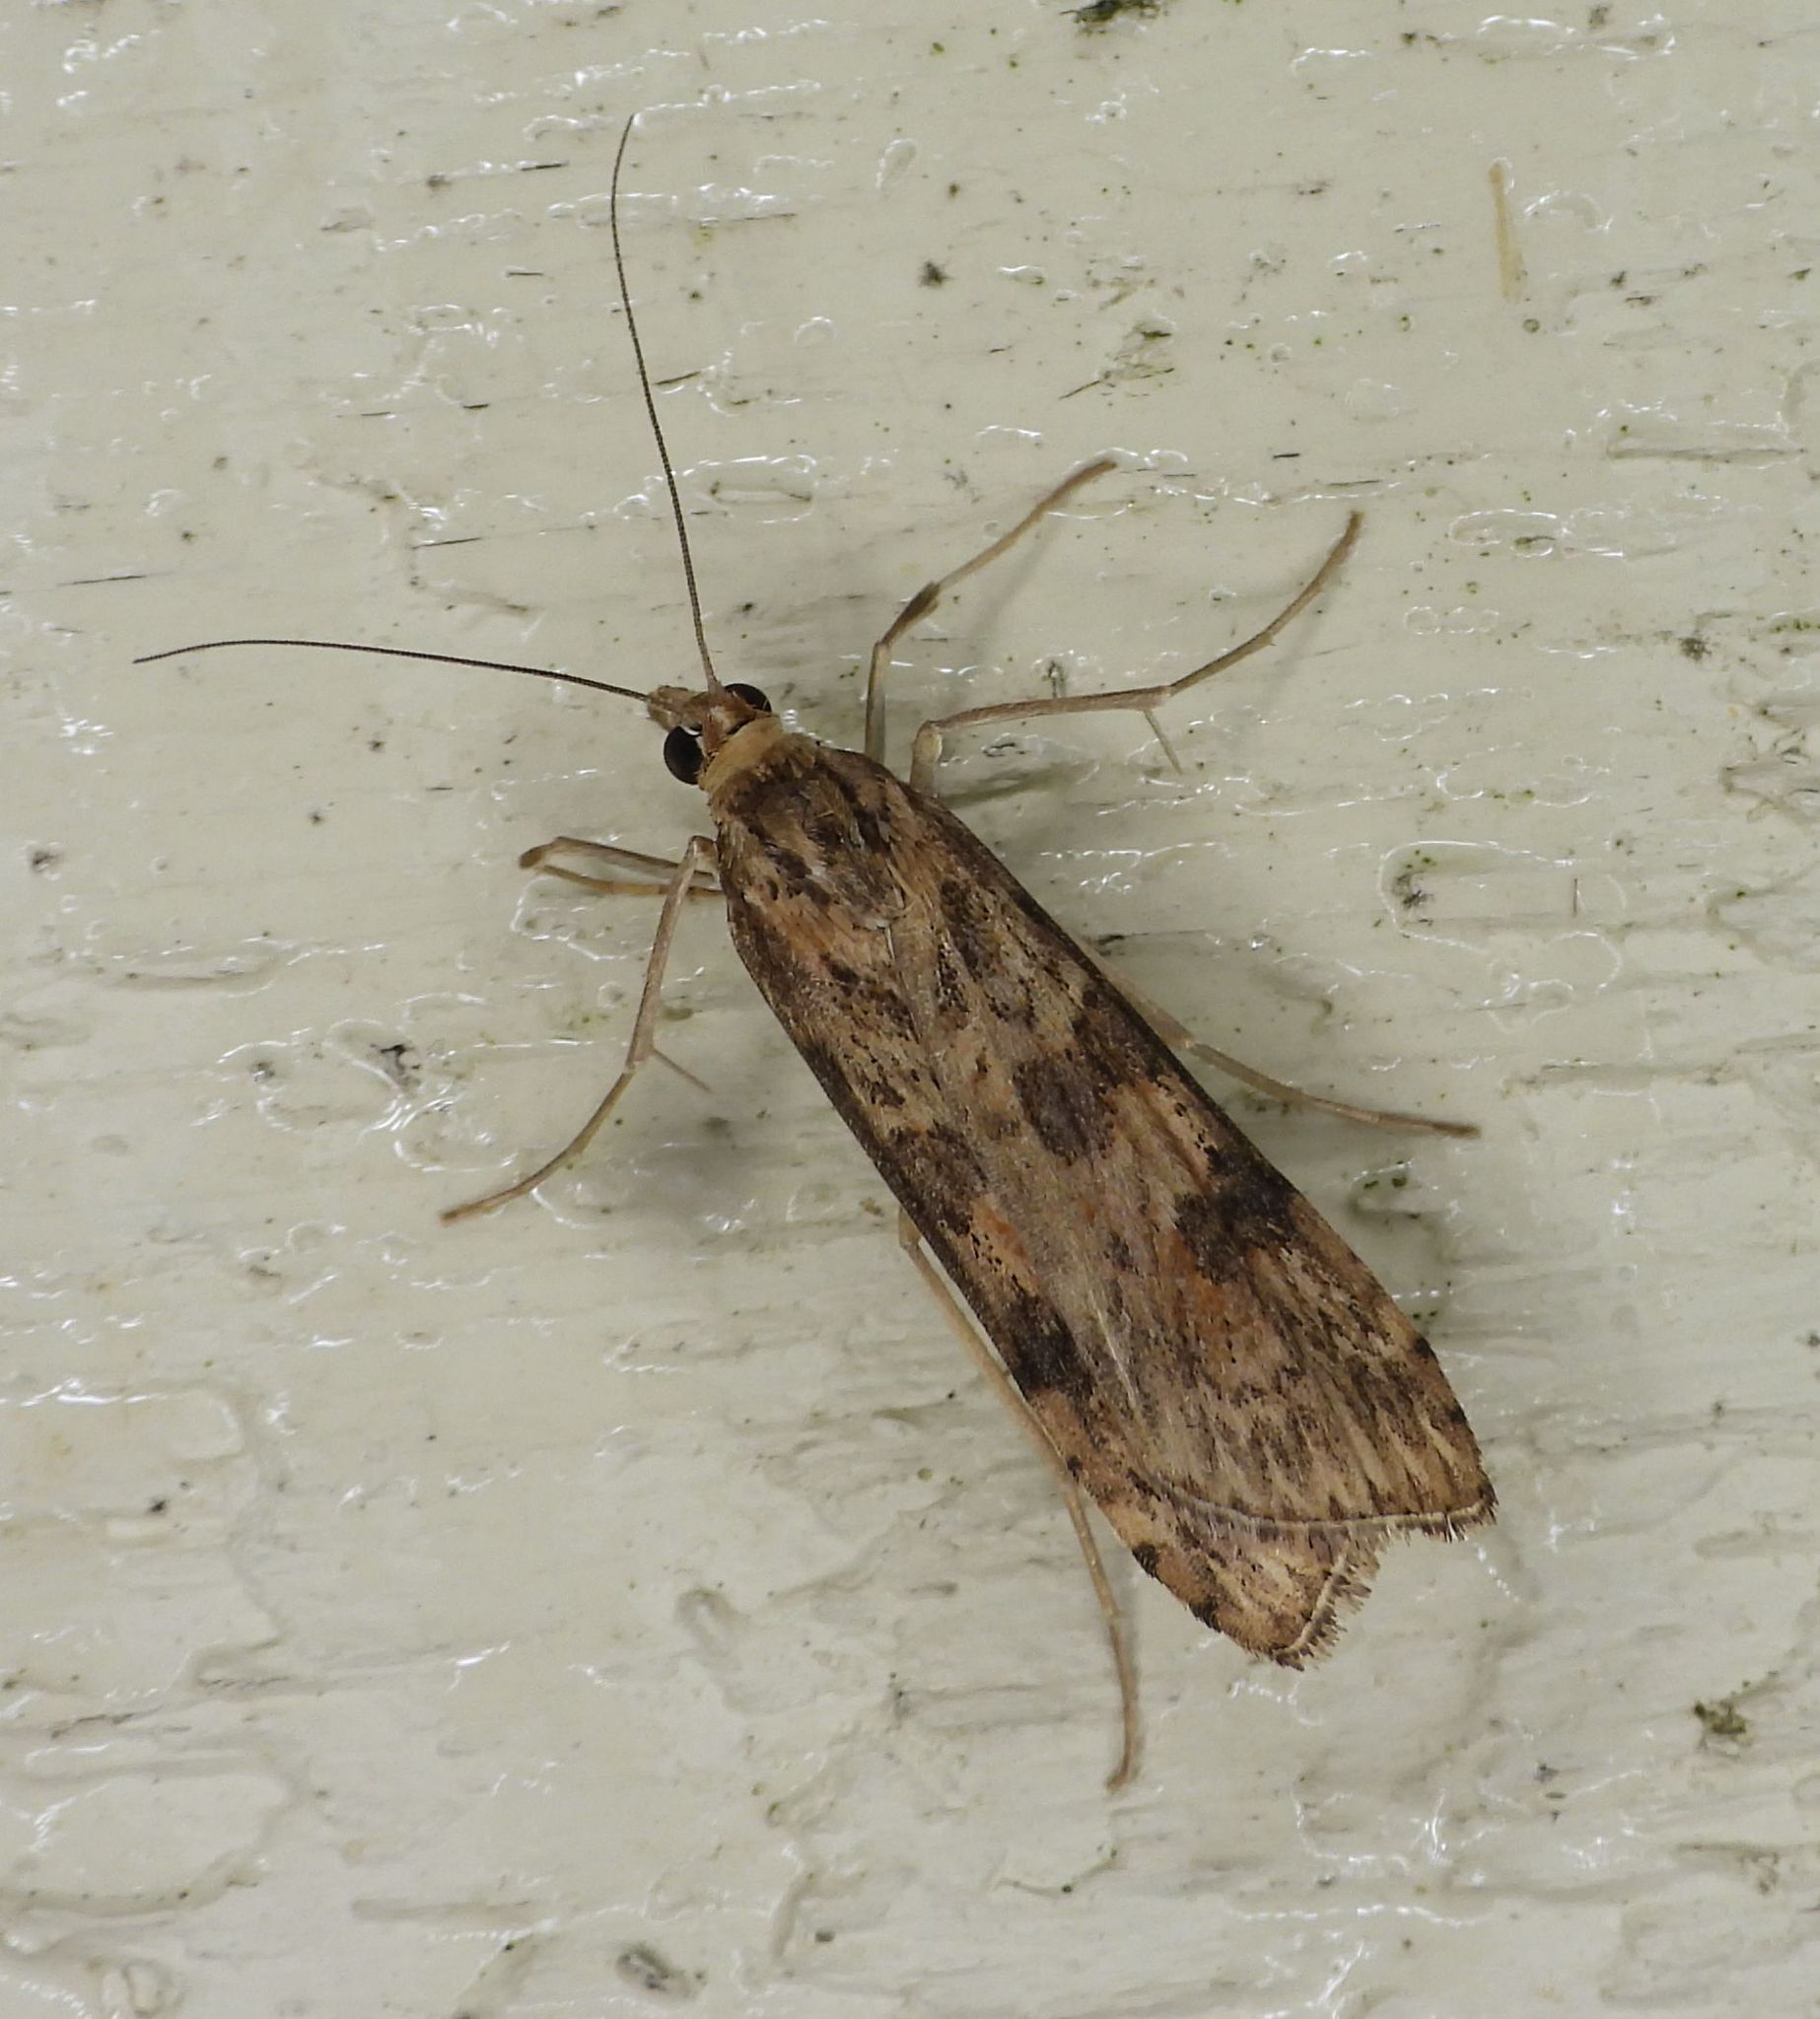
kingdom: Animalia
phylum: Arthropoda
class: Insecta
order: Lepidoptera
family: Crambidae
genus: Nomophila
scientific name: Nomophila nearctica
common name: American rush veneer
